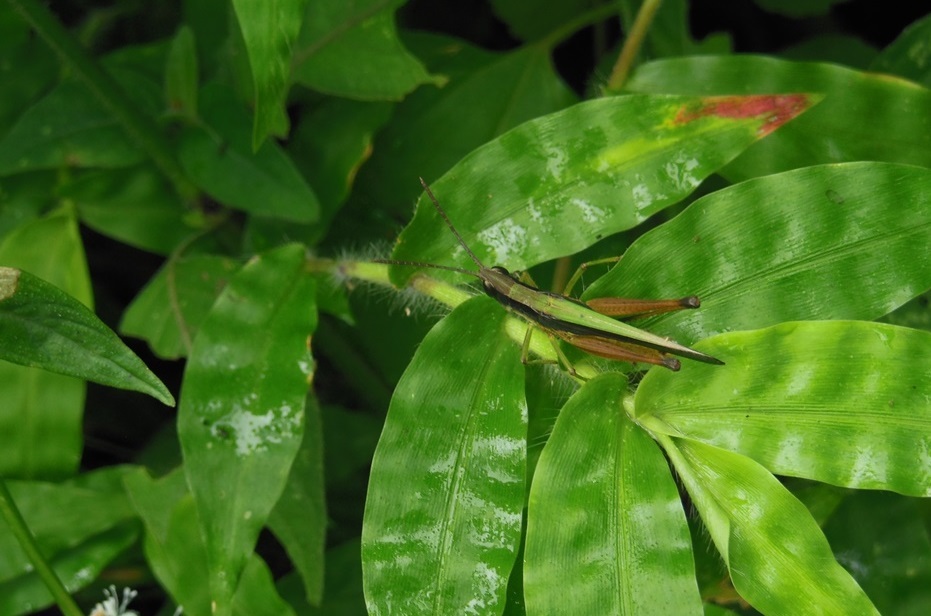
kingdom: Animalia
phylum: Arthropoda
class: Insecta
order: Orthoptera
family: Acrididae
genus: Chiapacris
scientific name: Chiapacris velox
